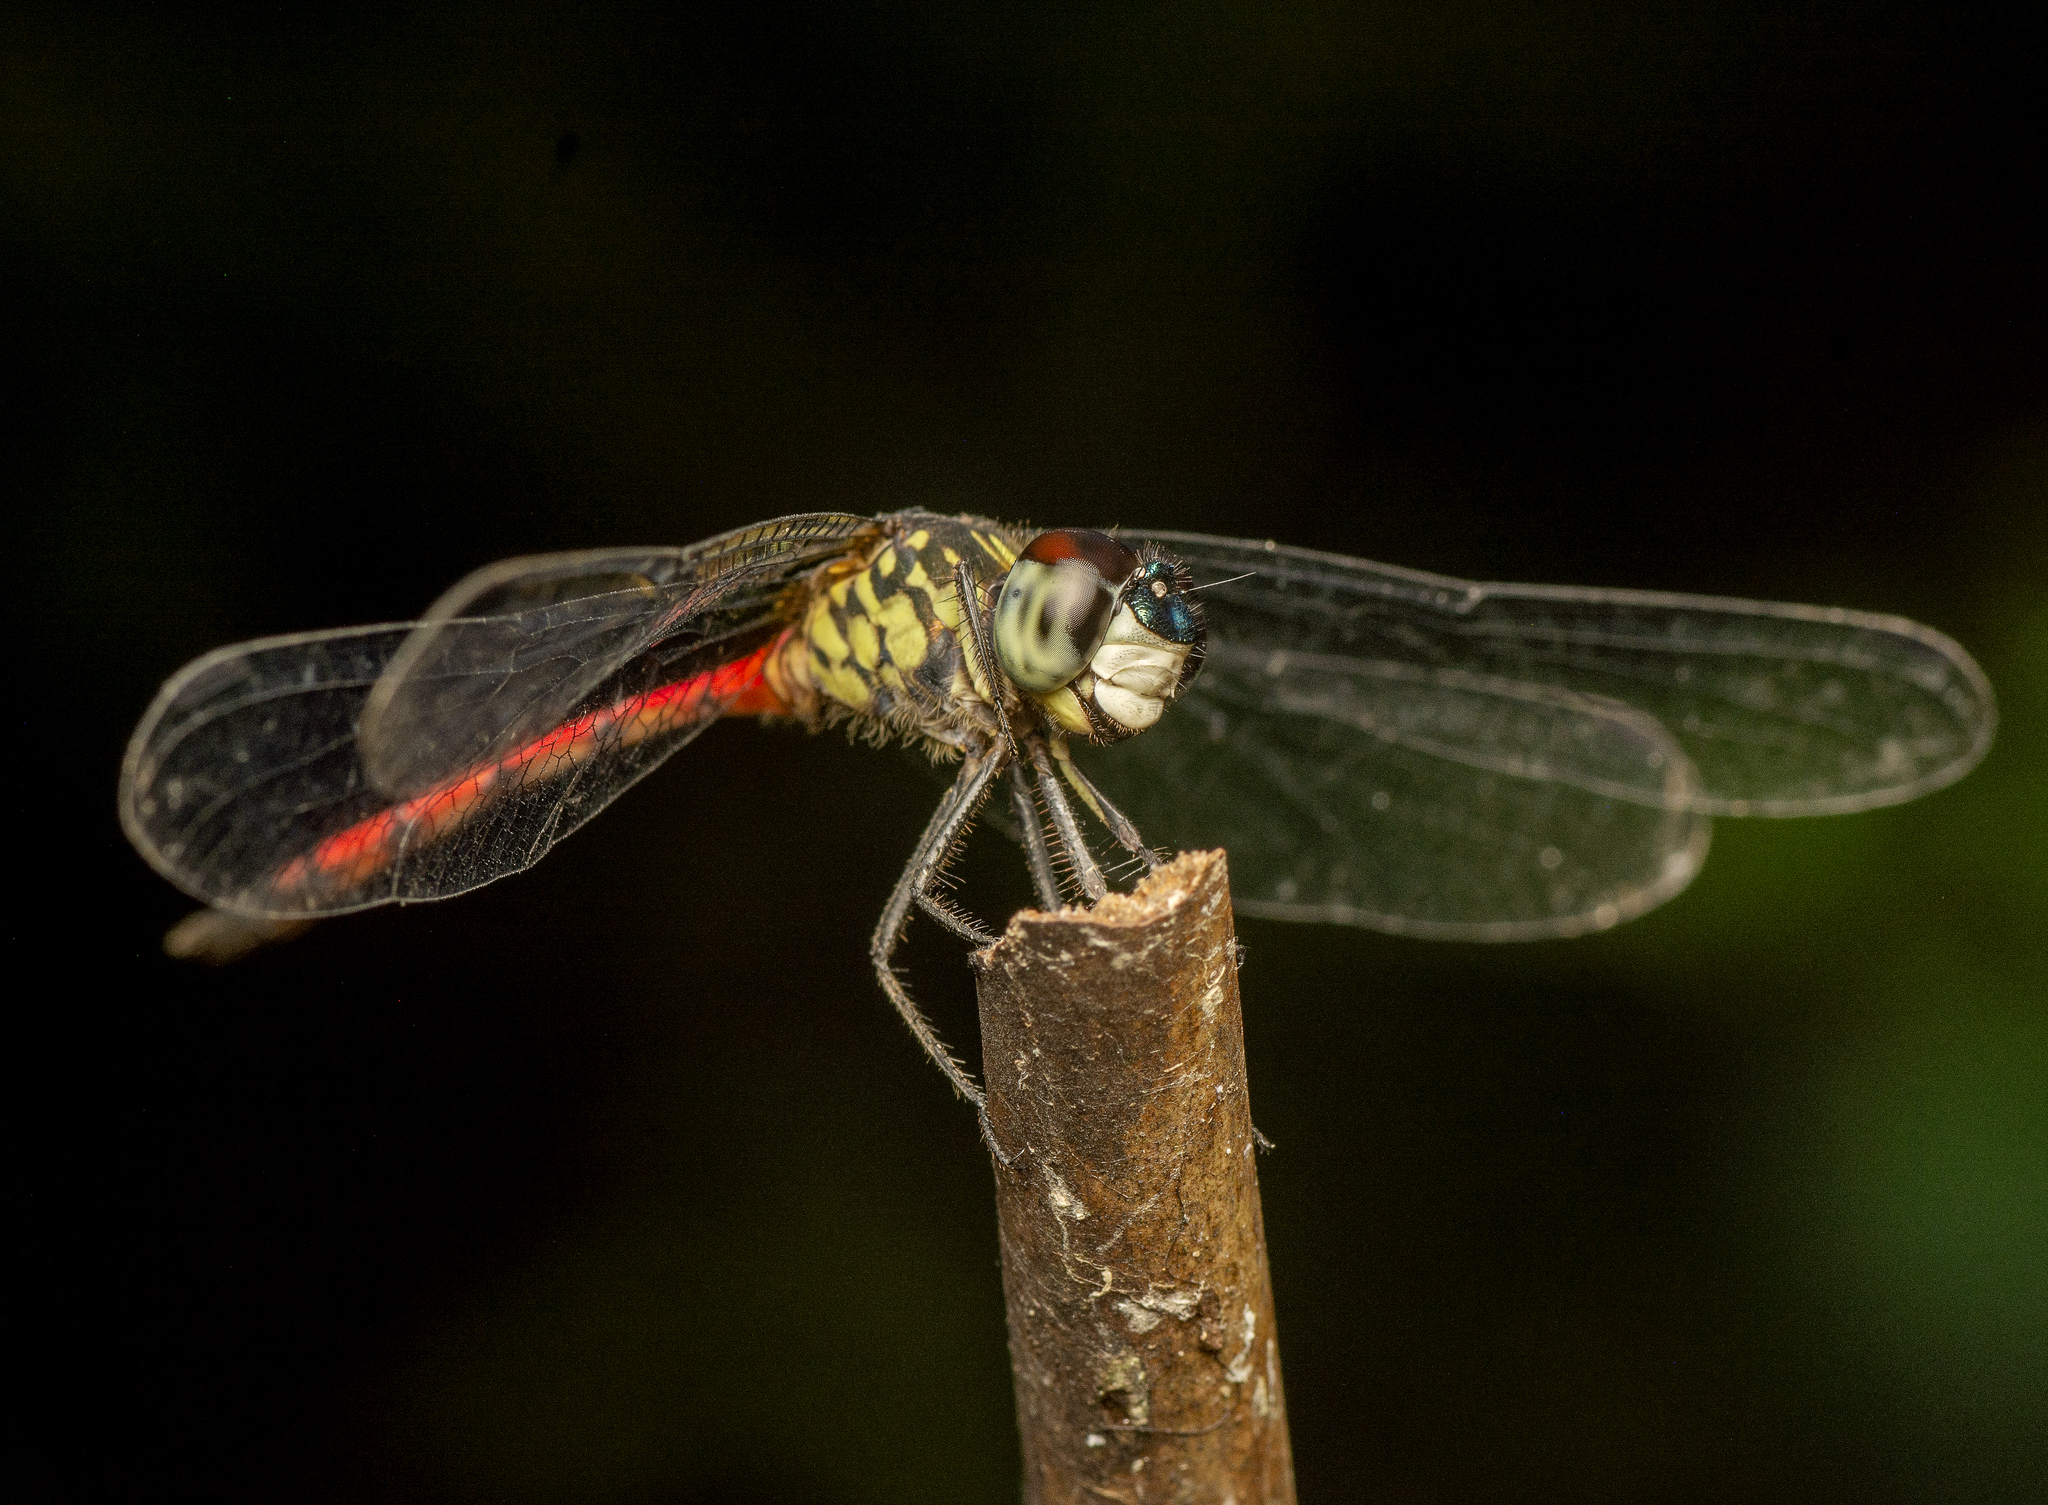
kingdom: Animalia
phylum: Arthropoda
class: Insecta
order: Odonata
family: Libellulidae
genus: Agrionoptera
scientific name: Agrionoptera insignis
